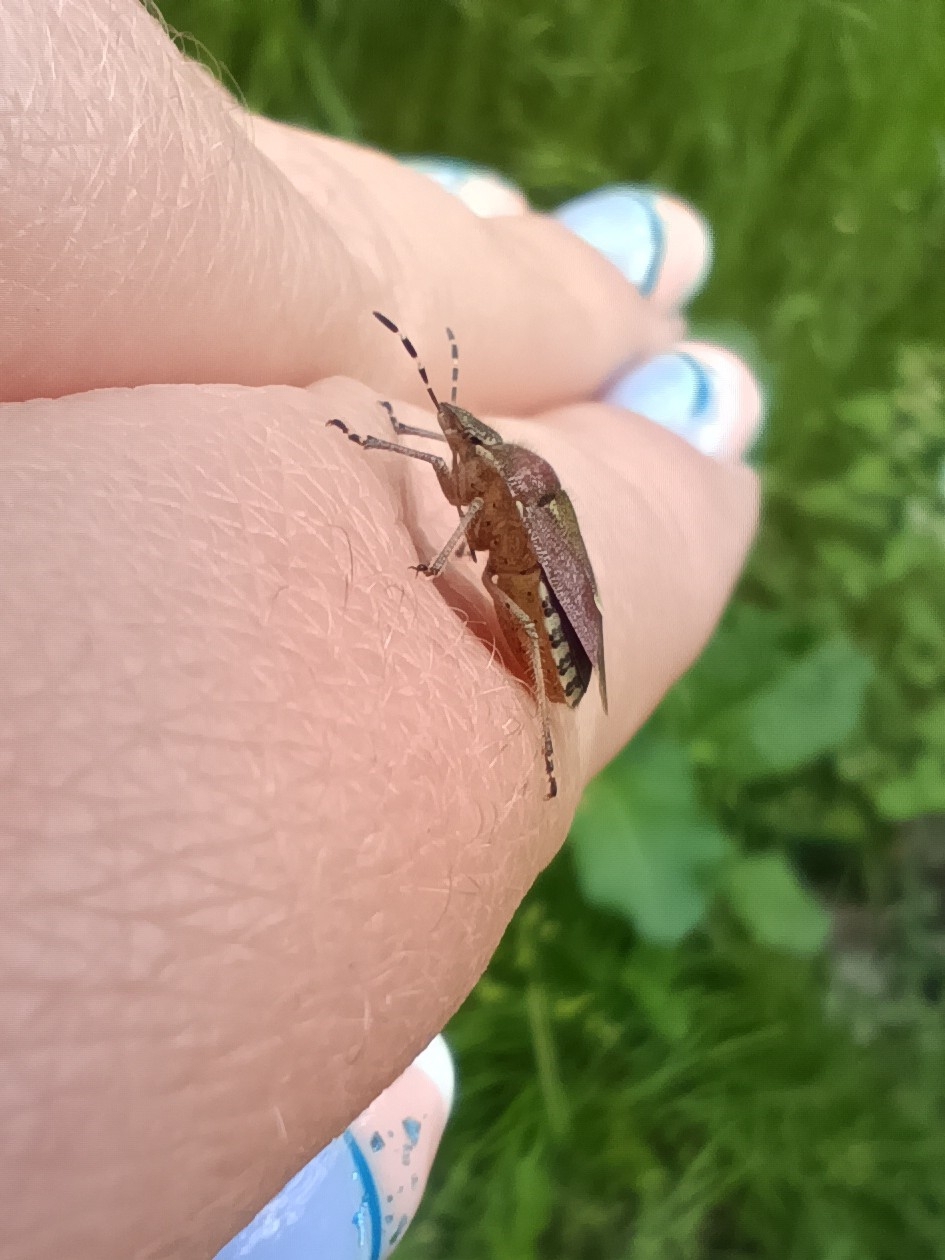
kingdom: Animalia
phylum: Arthropoda
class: Insecta
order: Hemiptera
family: Pentatomidae
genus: Dolycoris
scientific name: Dolycoris baccarum
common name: Sloe bug
